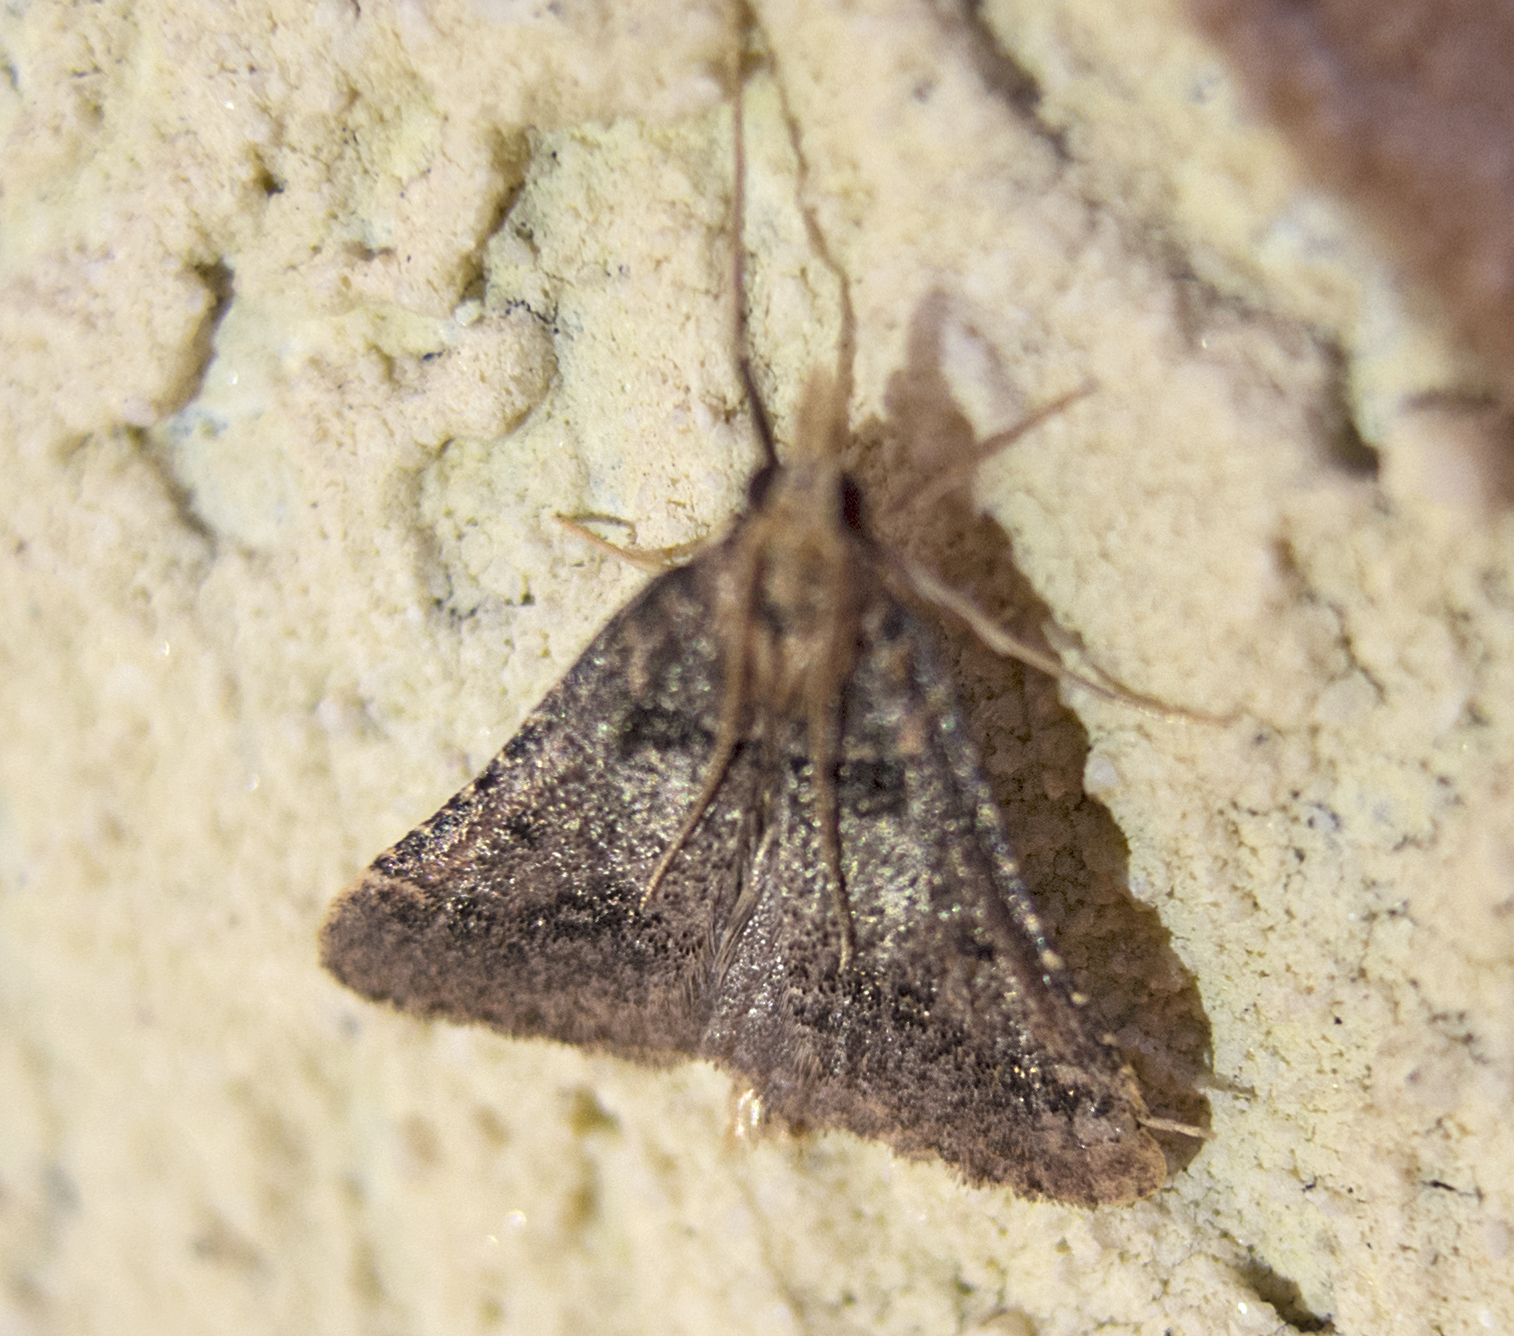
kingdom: Animalia
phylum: Arthropoda
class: Insecta
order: Lepidoptera
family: Pyralidae
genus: Stemmatophora
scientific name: Stemmatophora brunnealis
